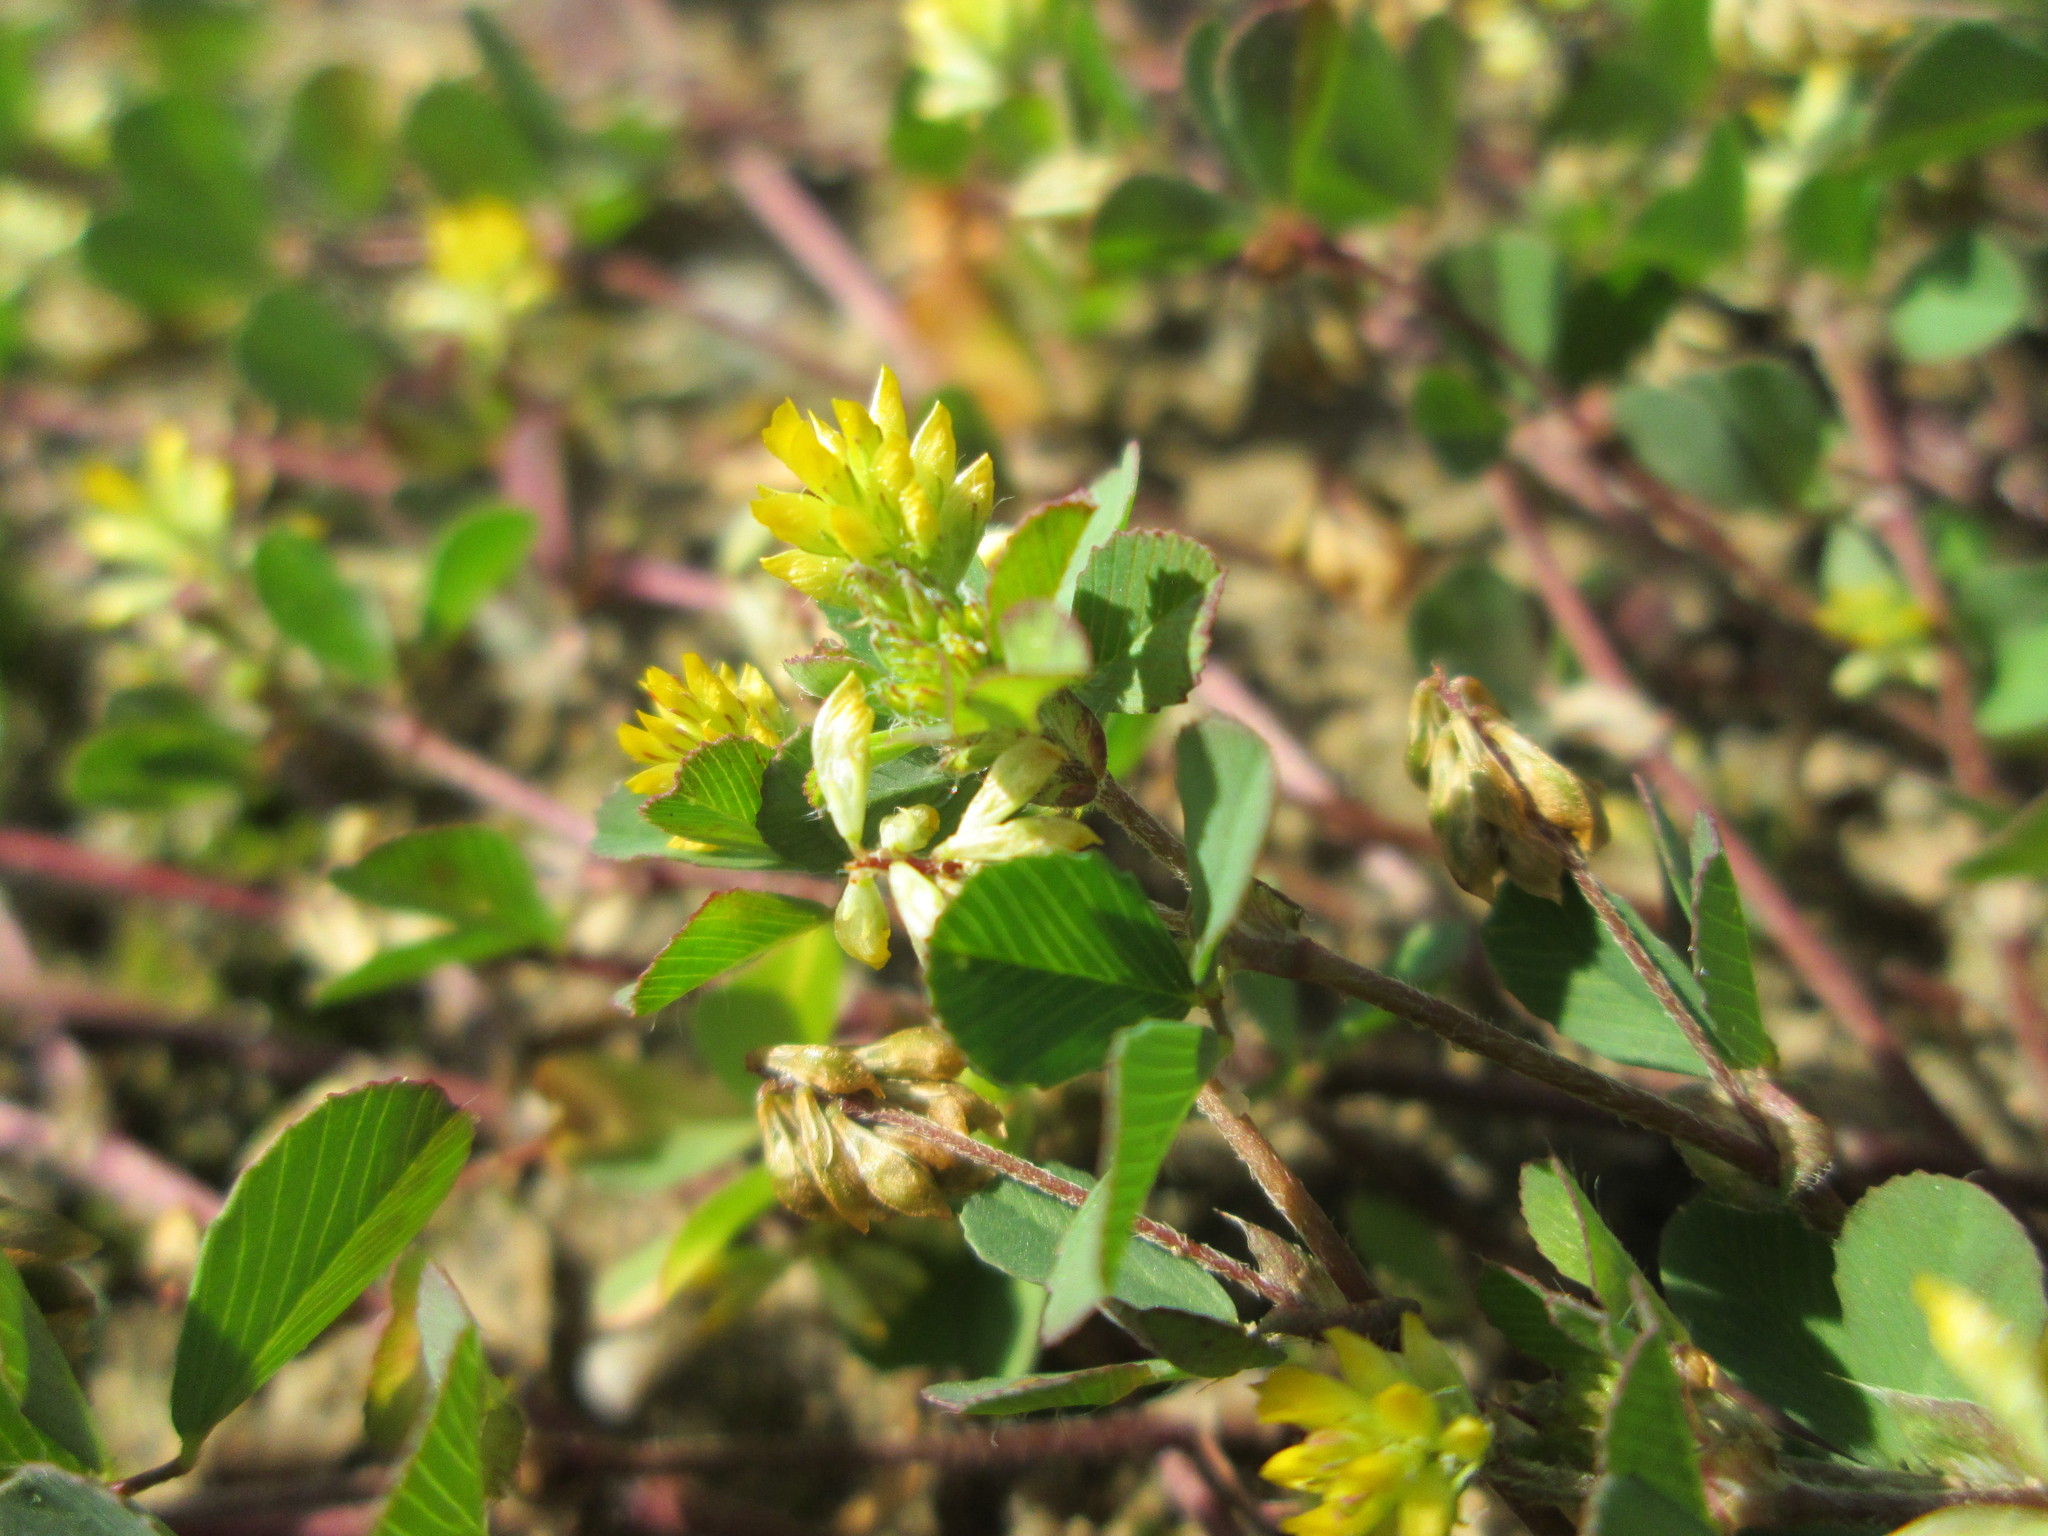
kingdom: Plantae
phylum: Tracheophyta
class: Magnoliopsida
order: Fabales
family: Fabaceae
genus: Trifolium
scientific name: Trifolium dubium
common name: Suckling clover
